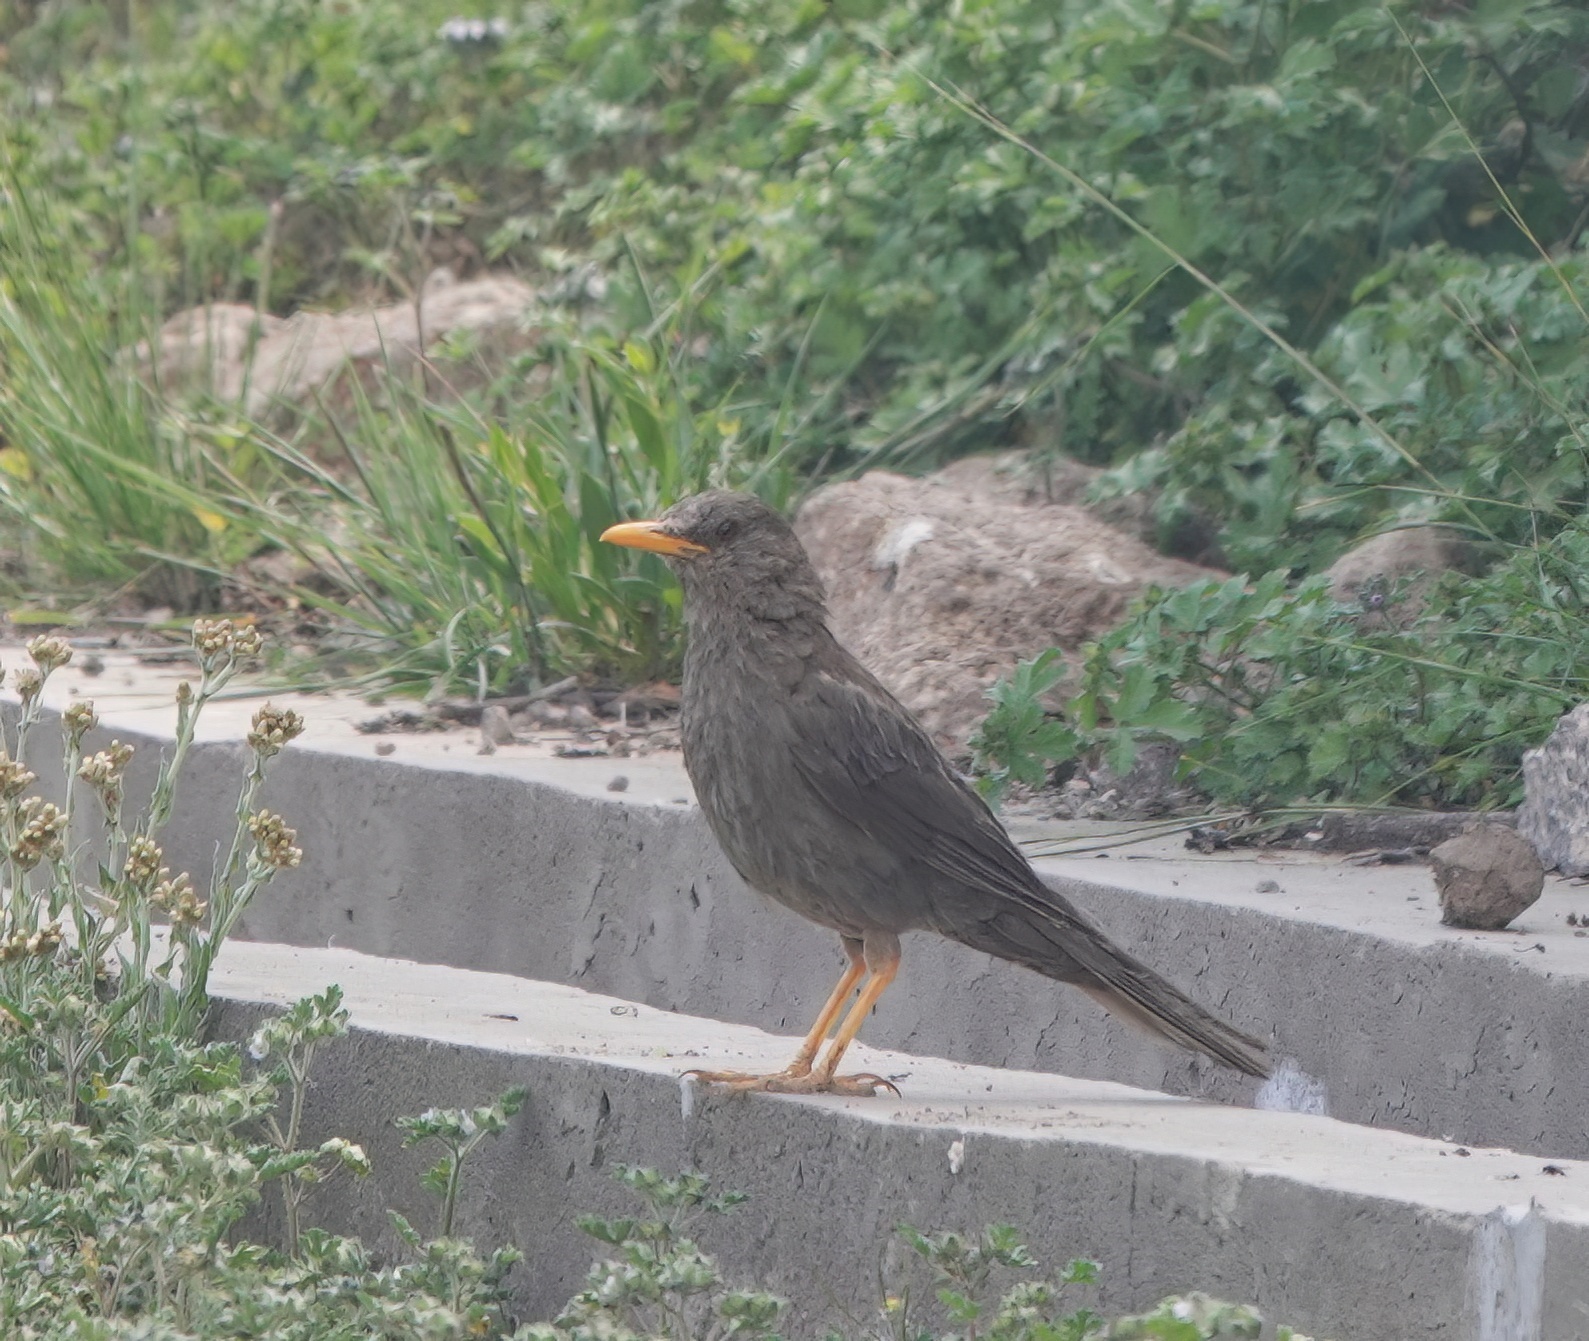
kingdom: Animalia
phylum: Chordata
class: Aves
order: Passeriformes
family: Turdidae
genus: Turdus
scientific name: Turdus chiguanco
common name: Chiguanco thrush
